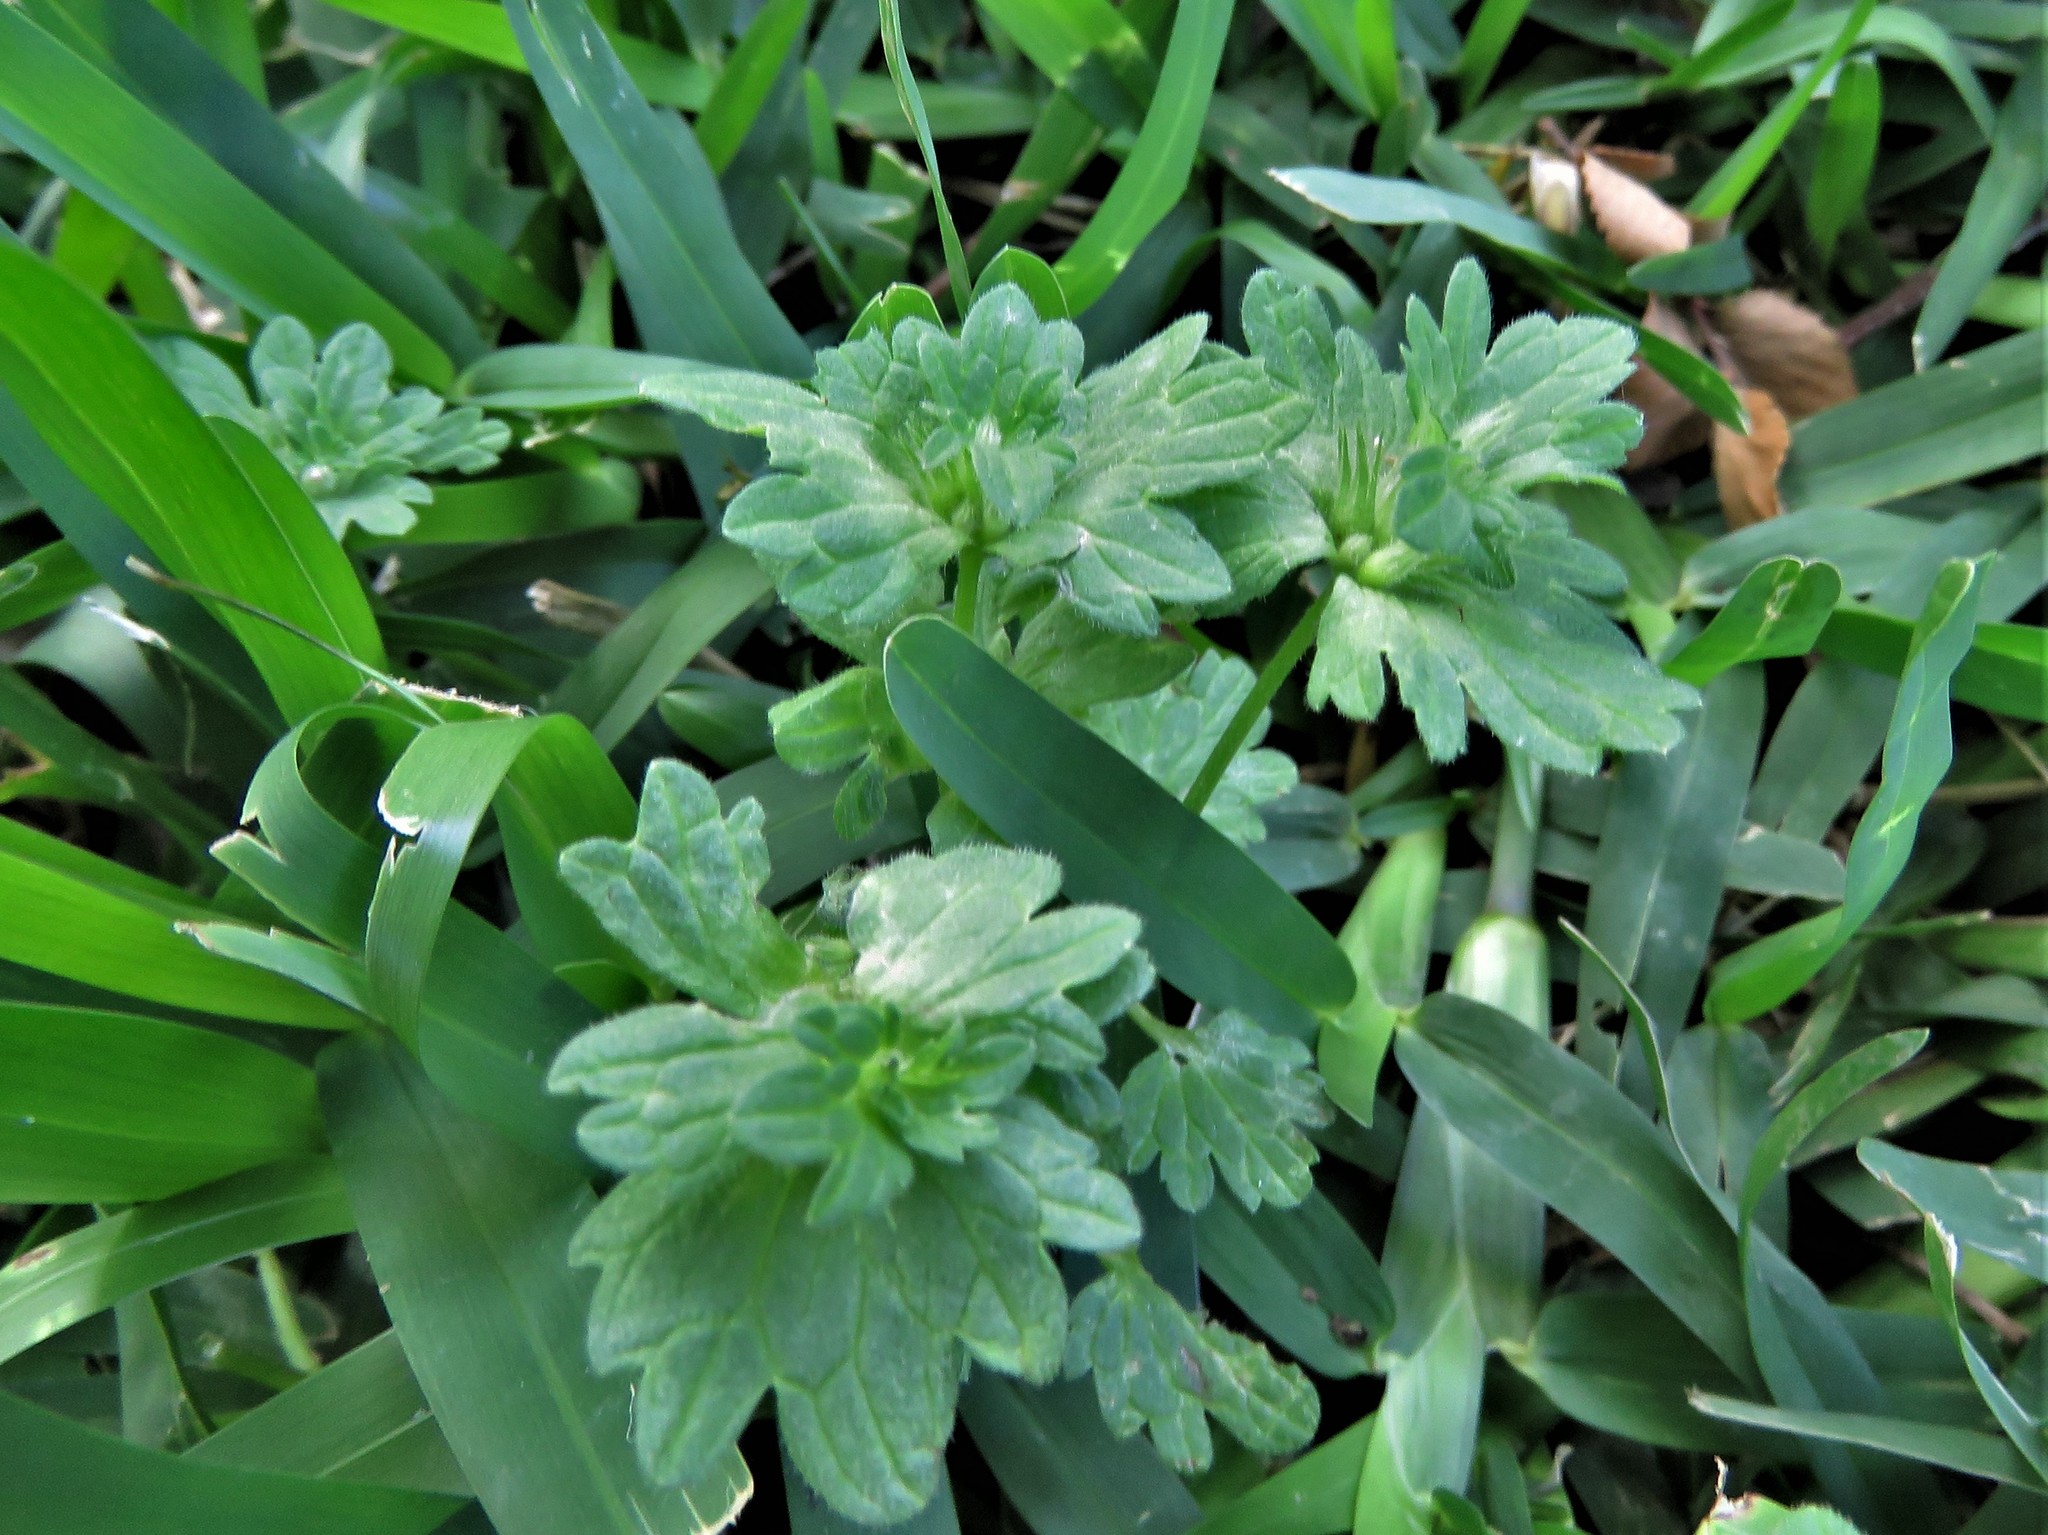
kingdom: Plantae
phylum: Tracheophyta
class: Magnoliopsida
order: Lamiales
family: Lamiaceae
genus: Lamium
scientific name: Lamium amplexicaule
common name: Henbit dead-nettle
